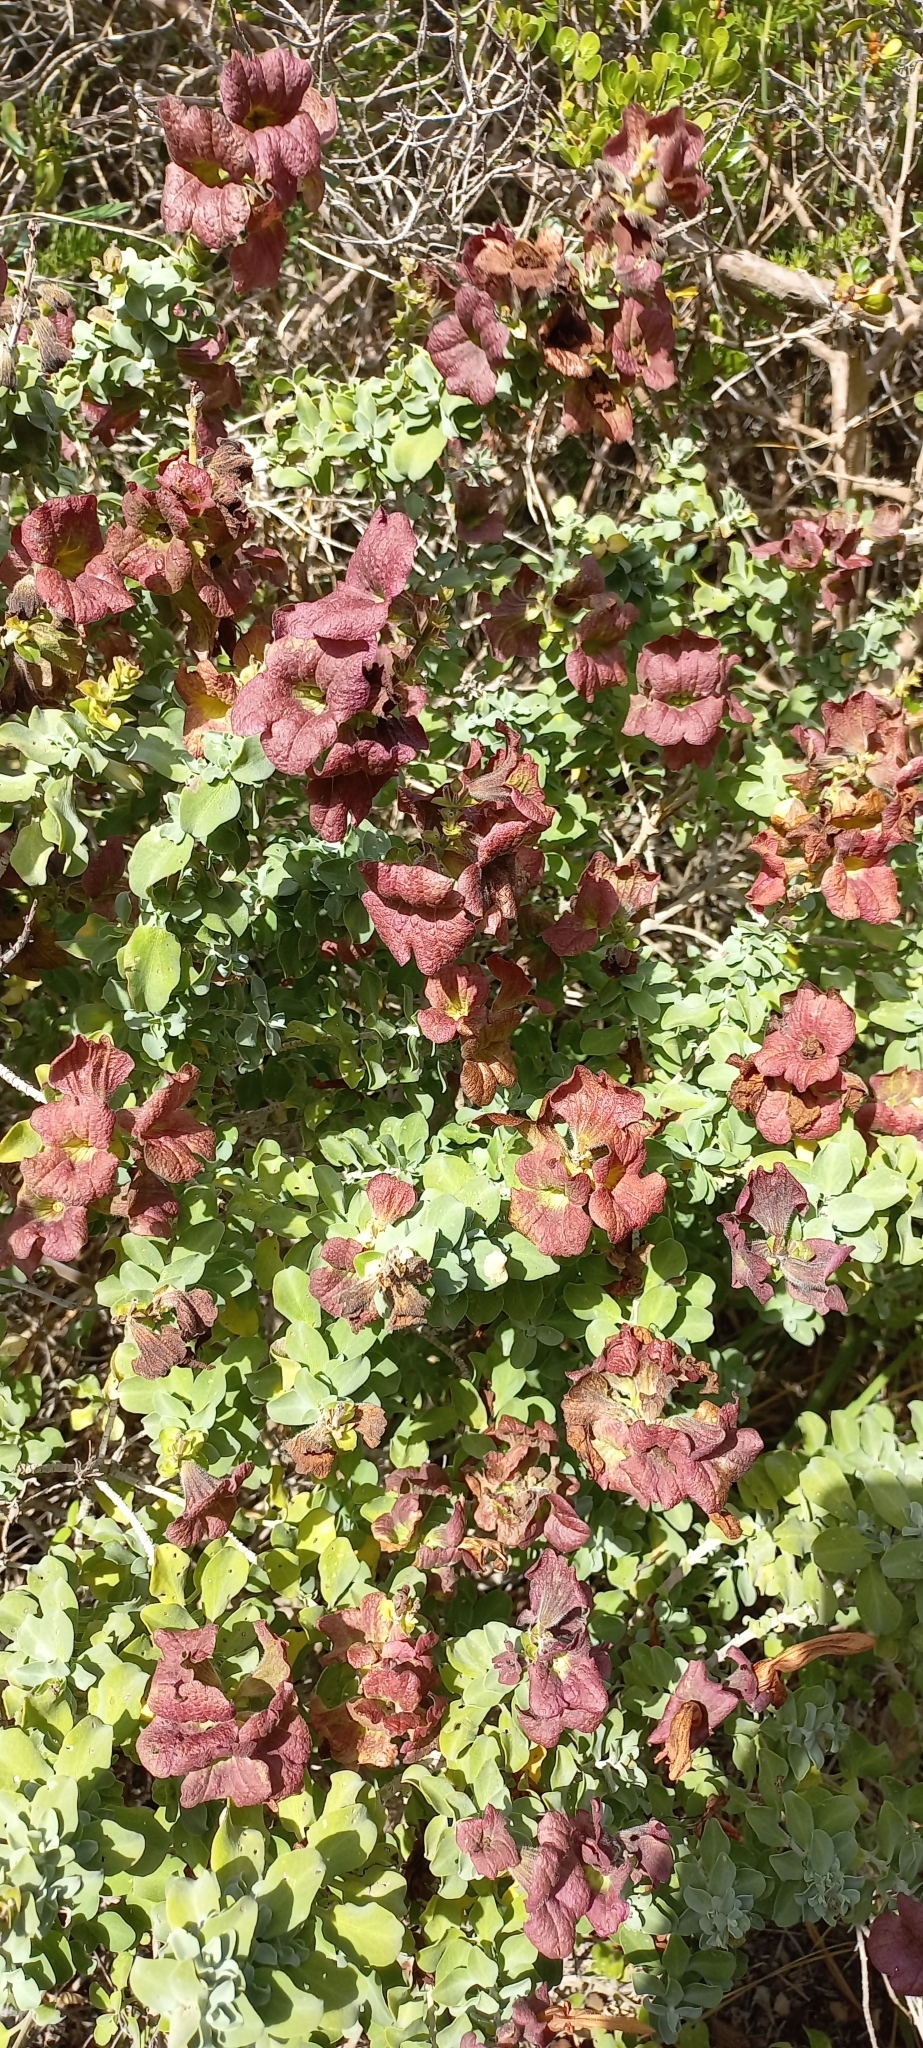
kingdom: Plantae
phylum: Tracheophyta
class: Magnoliopsida
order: Lamiales
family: Lamiaceae
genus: Salvia
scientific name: Salvia aurea
